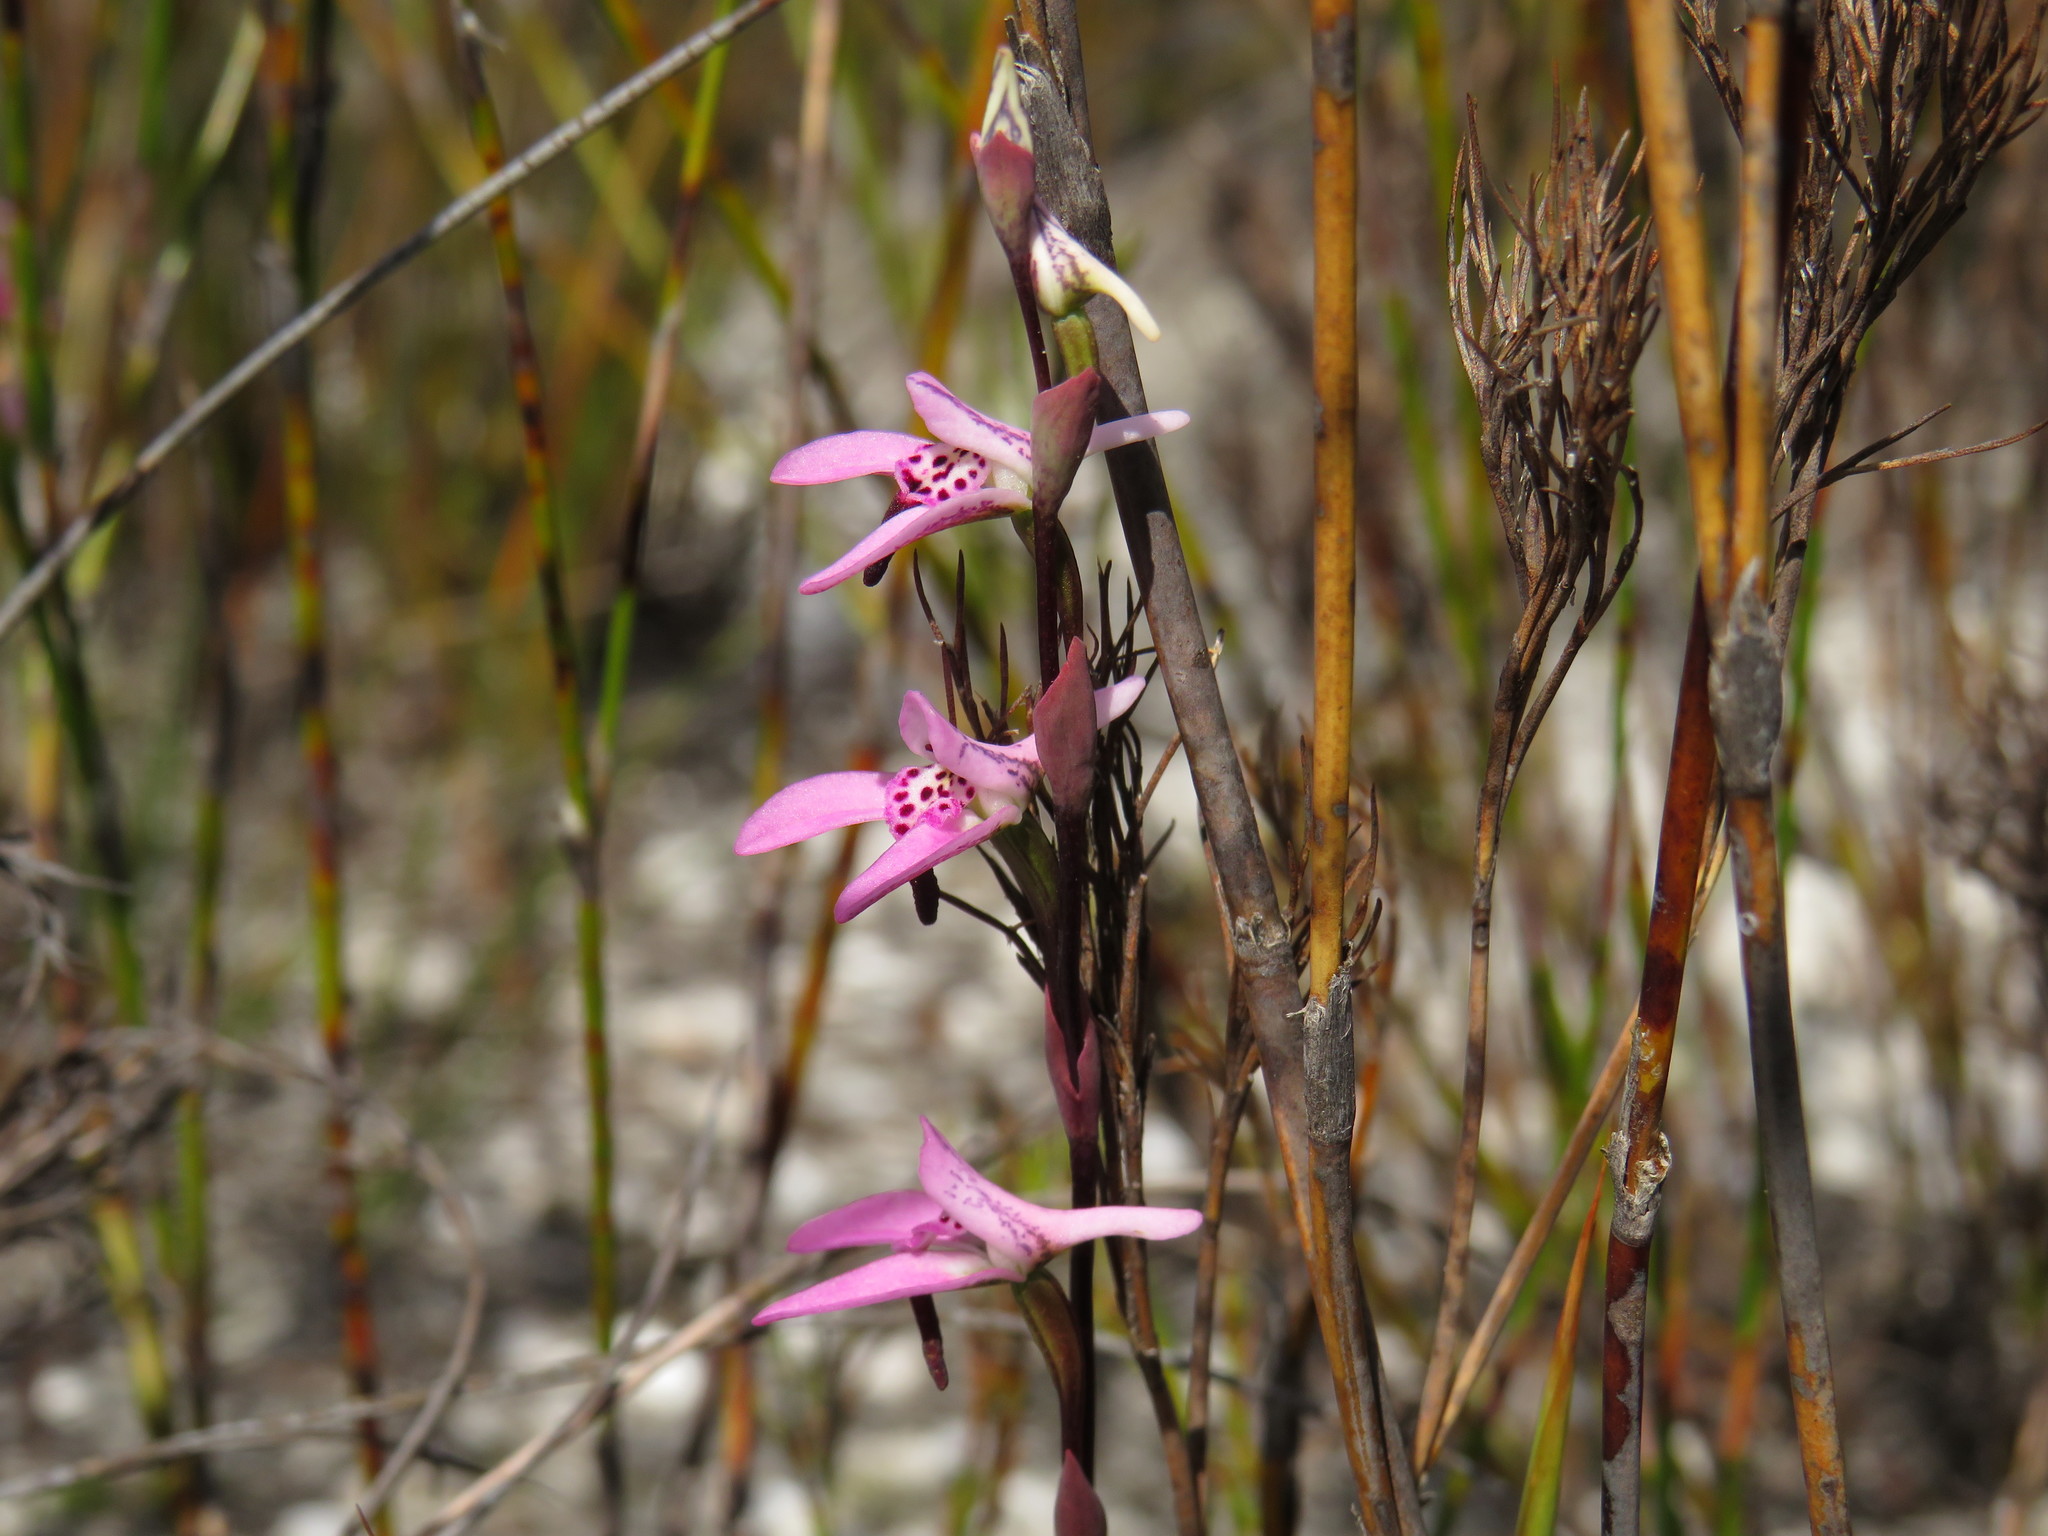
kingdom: Plantae
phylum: Tracheophyta
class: Liliopsida
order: Asparagales
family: Orchidaceae
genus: Disa
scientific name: Disa obliqua
